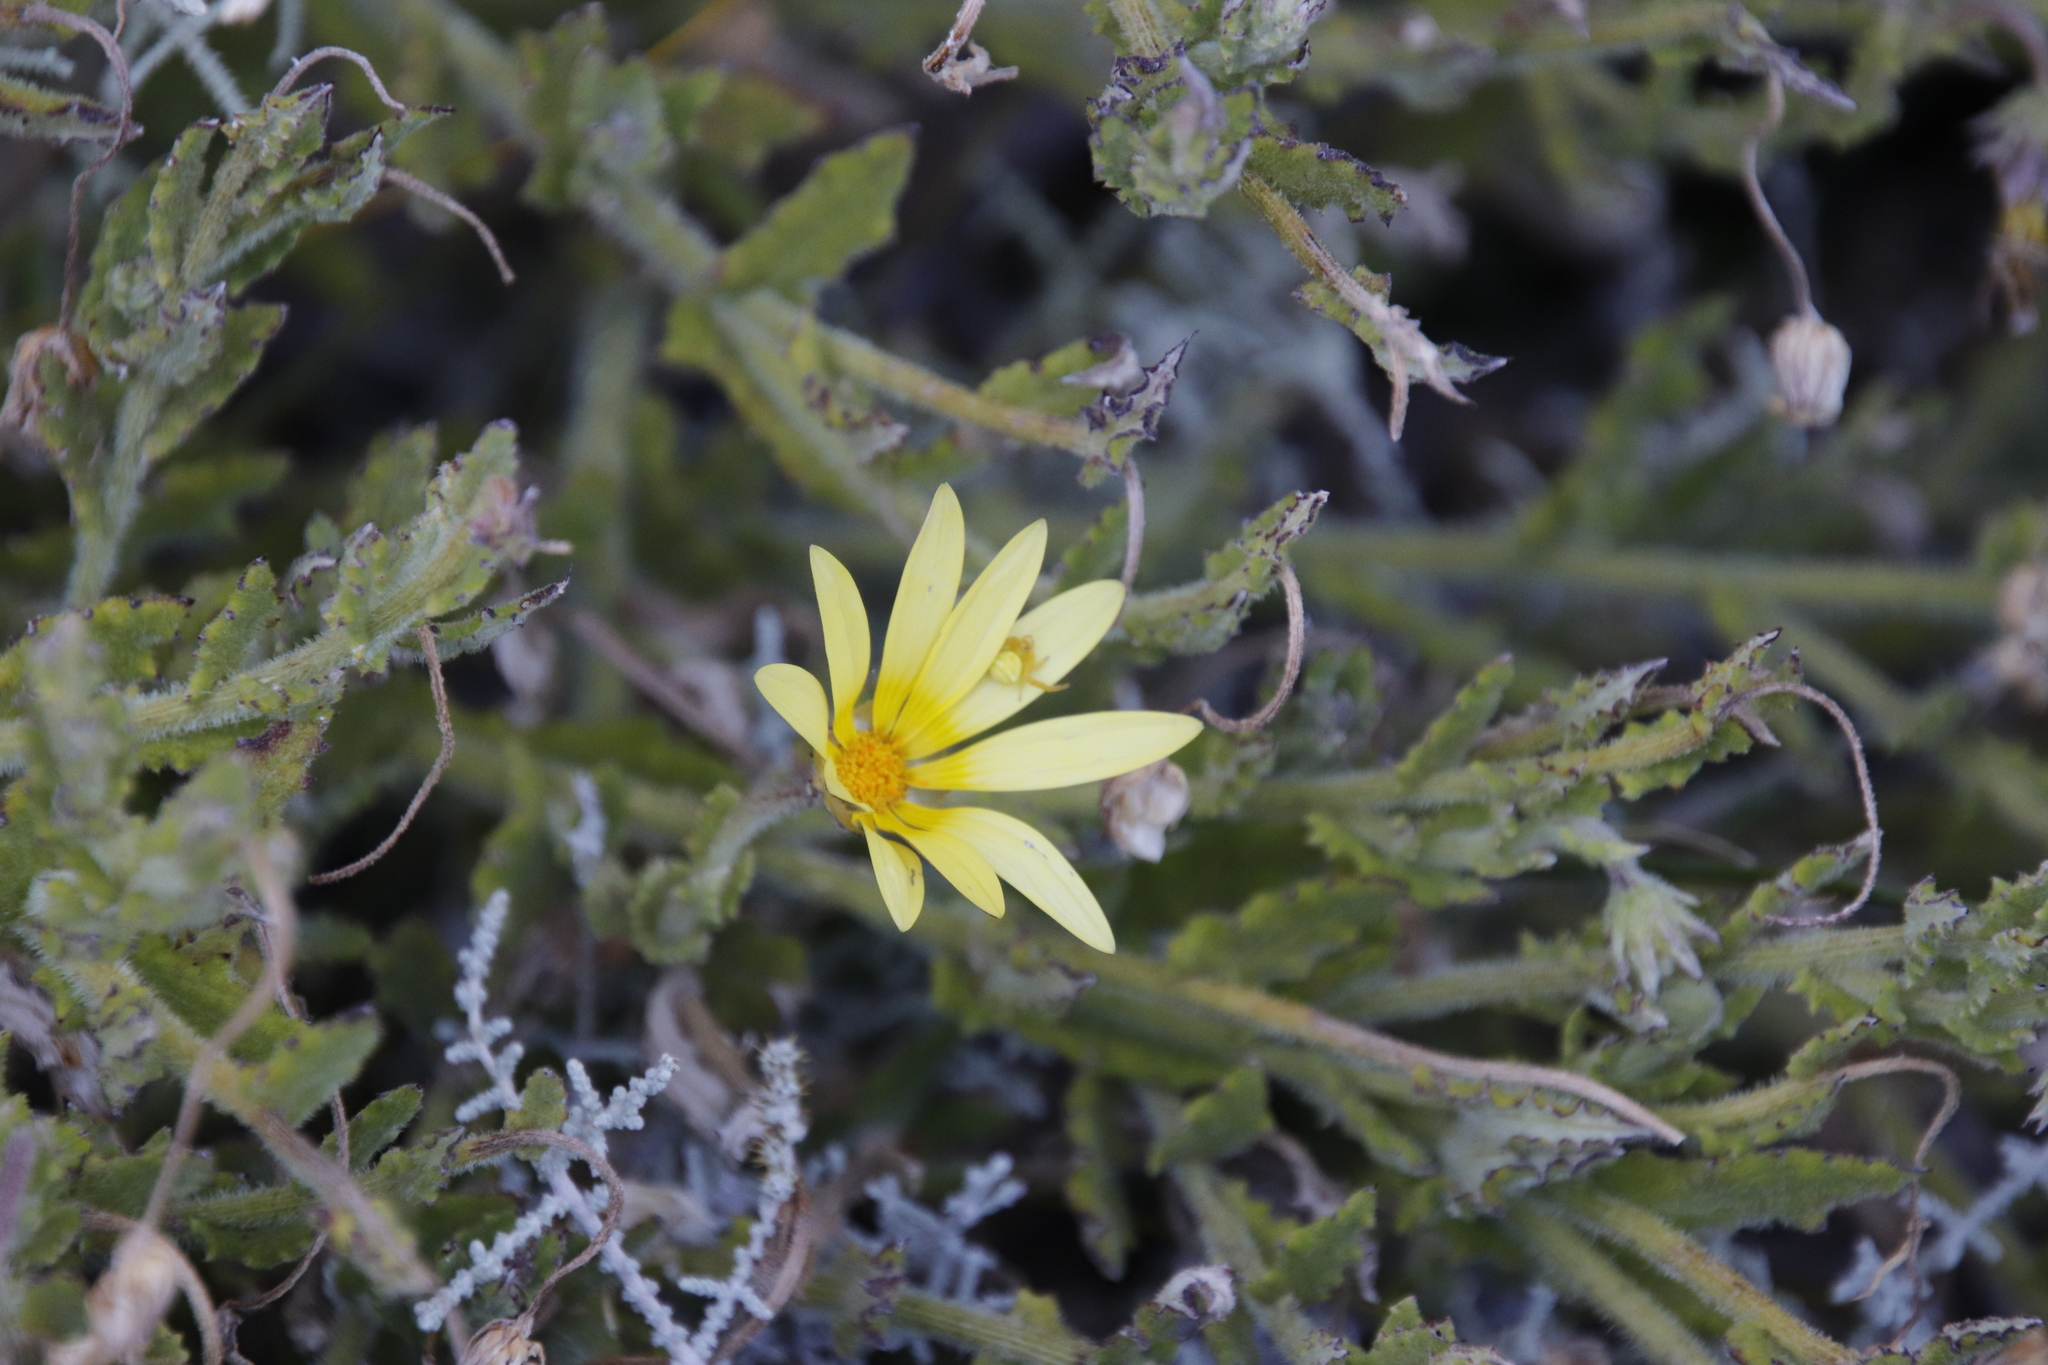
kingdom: Plantae
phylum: Tracheophyta
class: Magnoliopsida
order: Asterales
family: Asteraceae
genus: Arctotis
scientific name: Arctotis scabra
